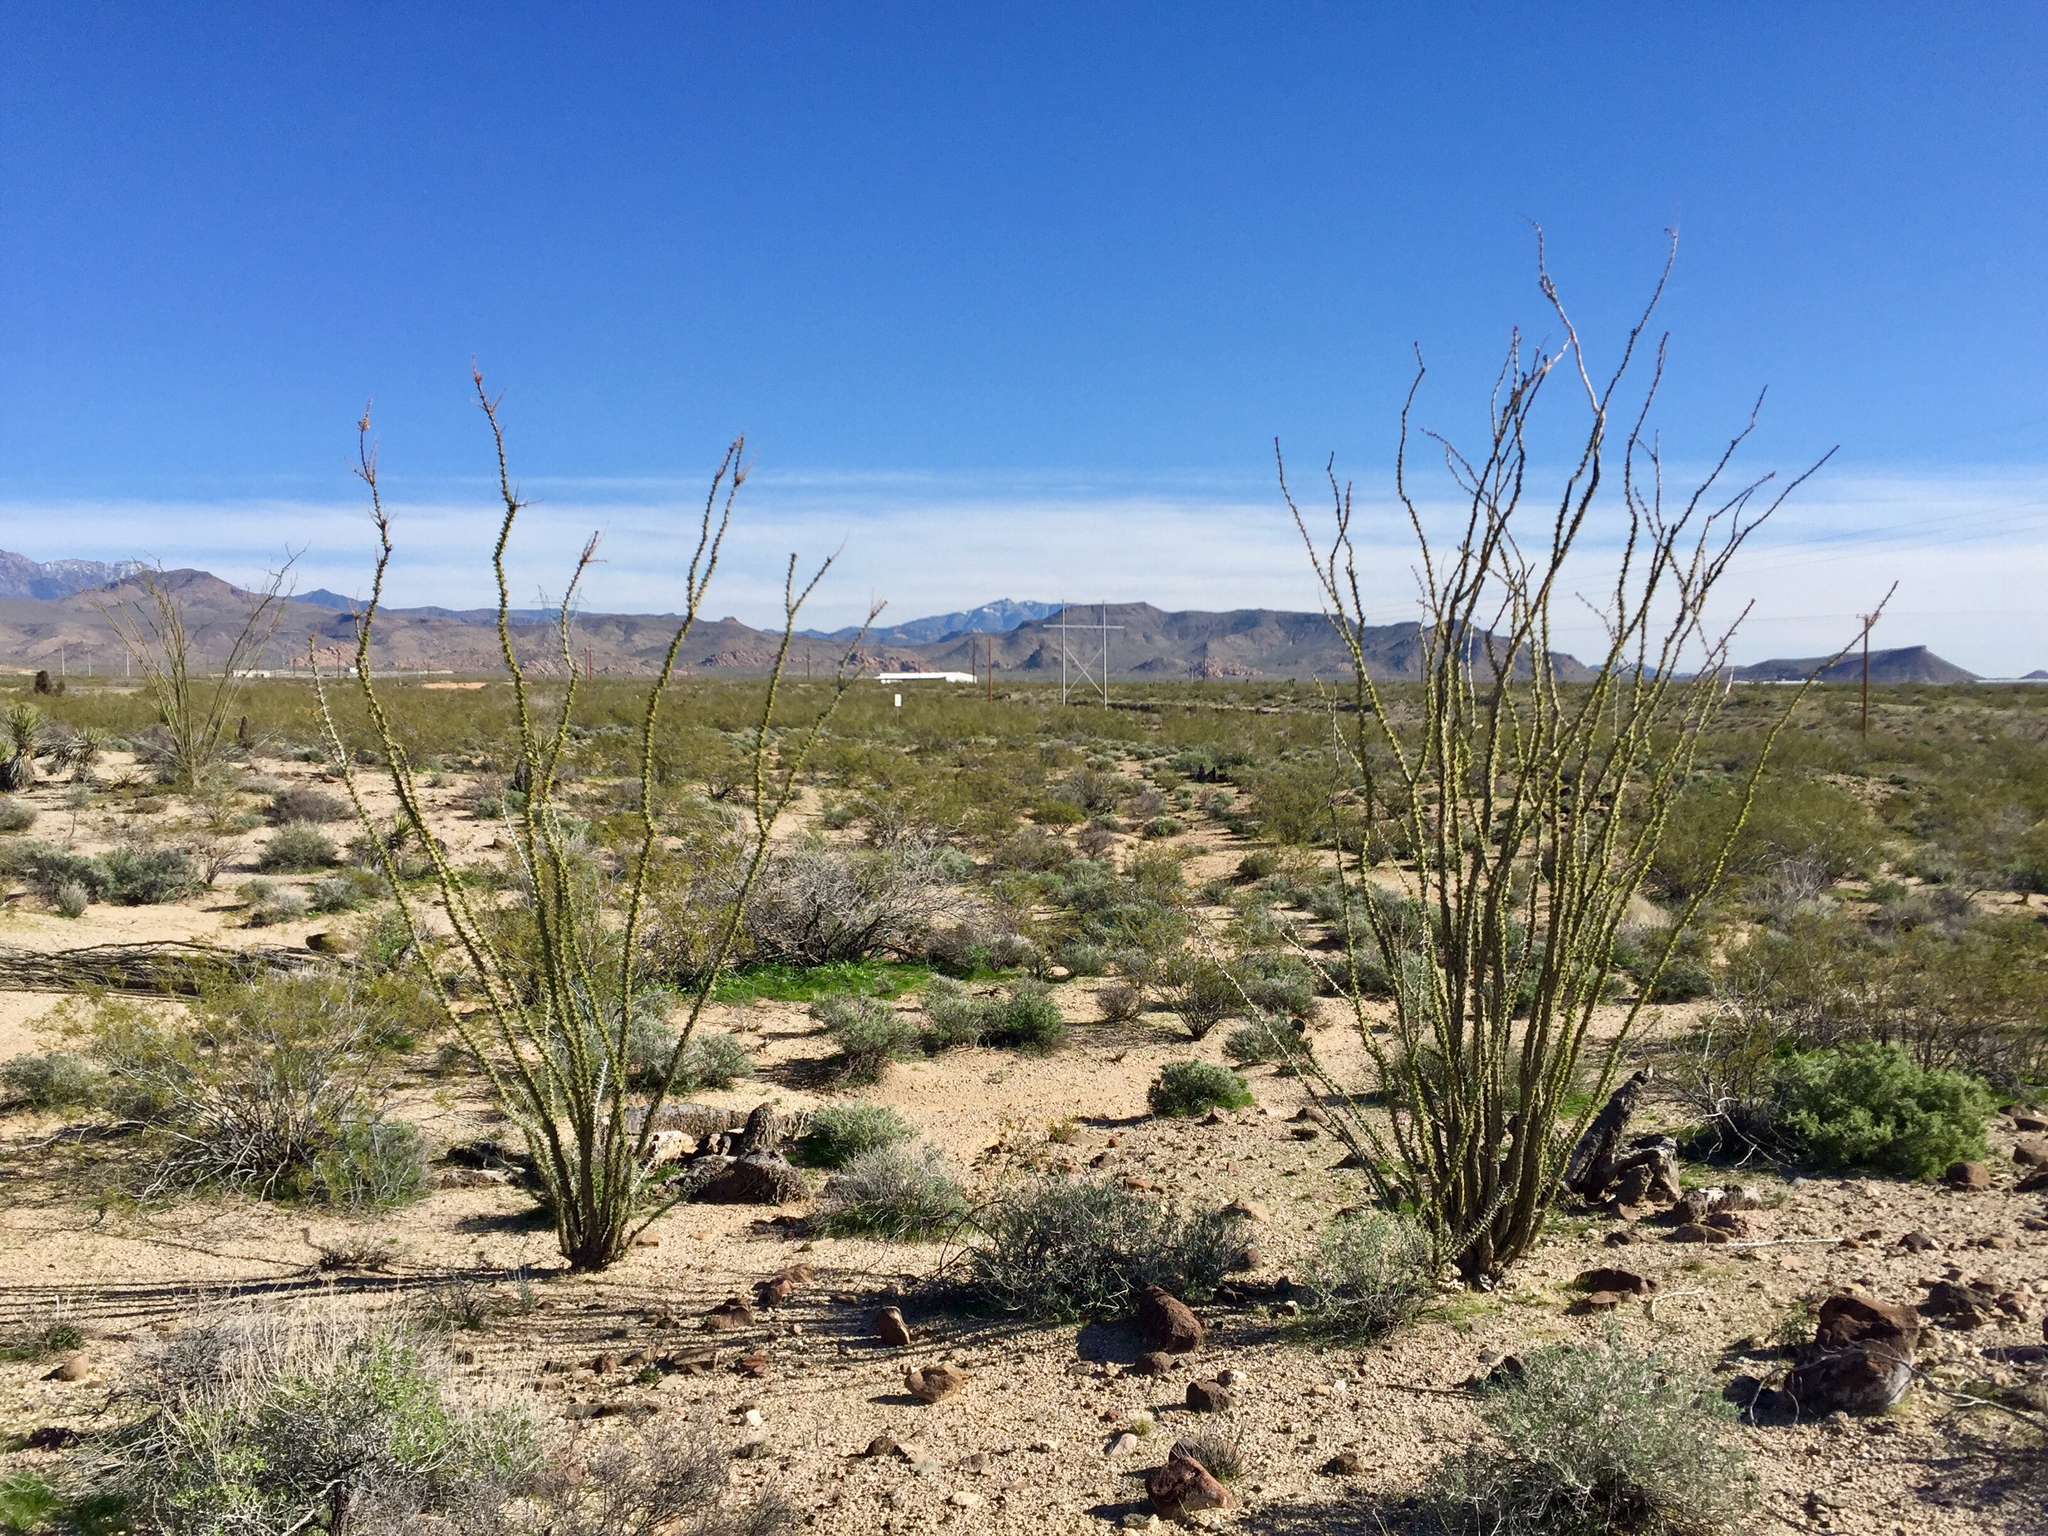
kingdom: Plantae
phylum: Tracheophyta
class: Magnoliopsida
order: Ericales
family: Fouquieriaceae
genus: Fouquieria
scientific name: Fouquieria splendens
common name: Vine-cactus
